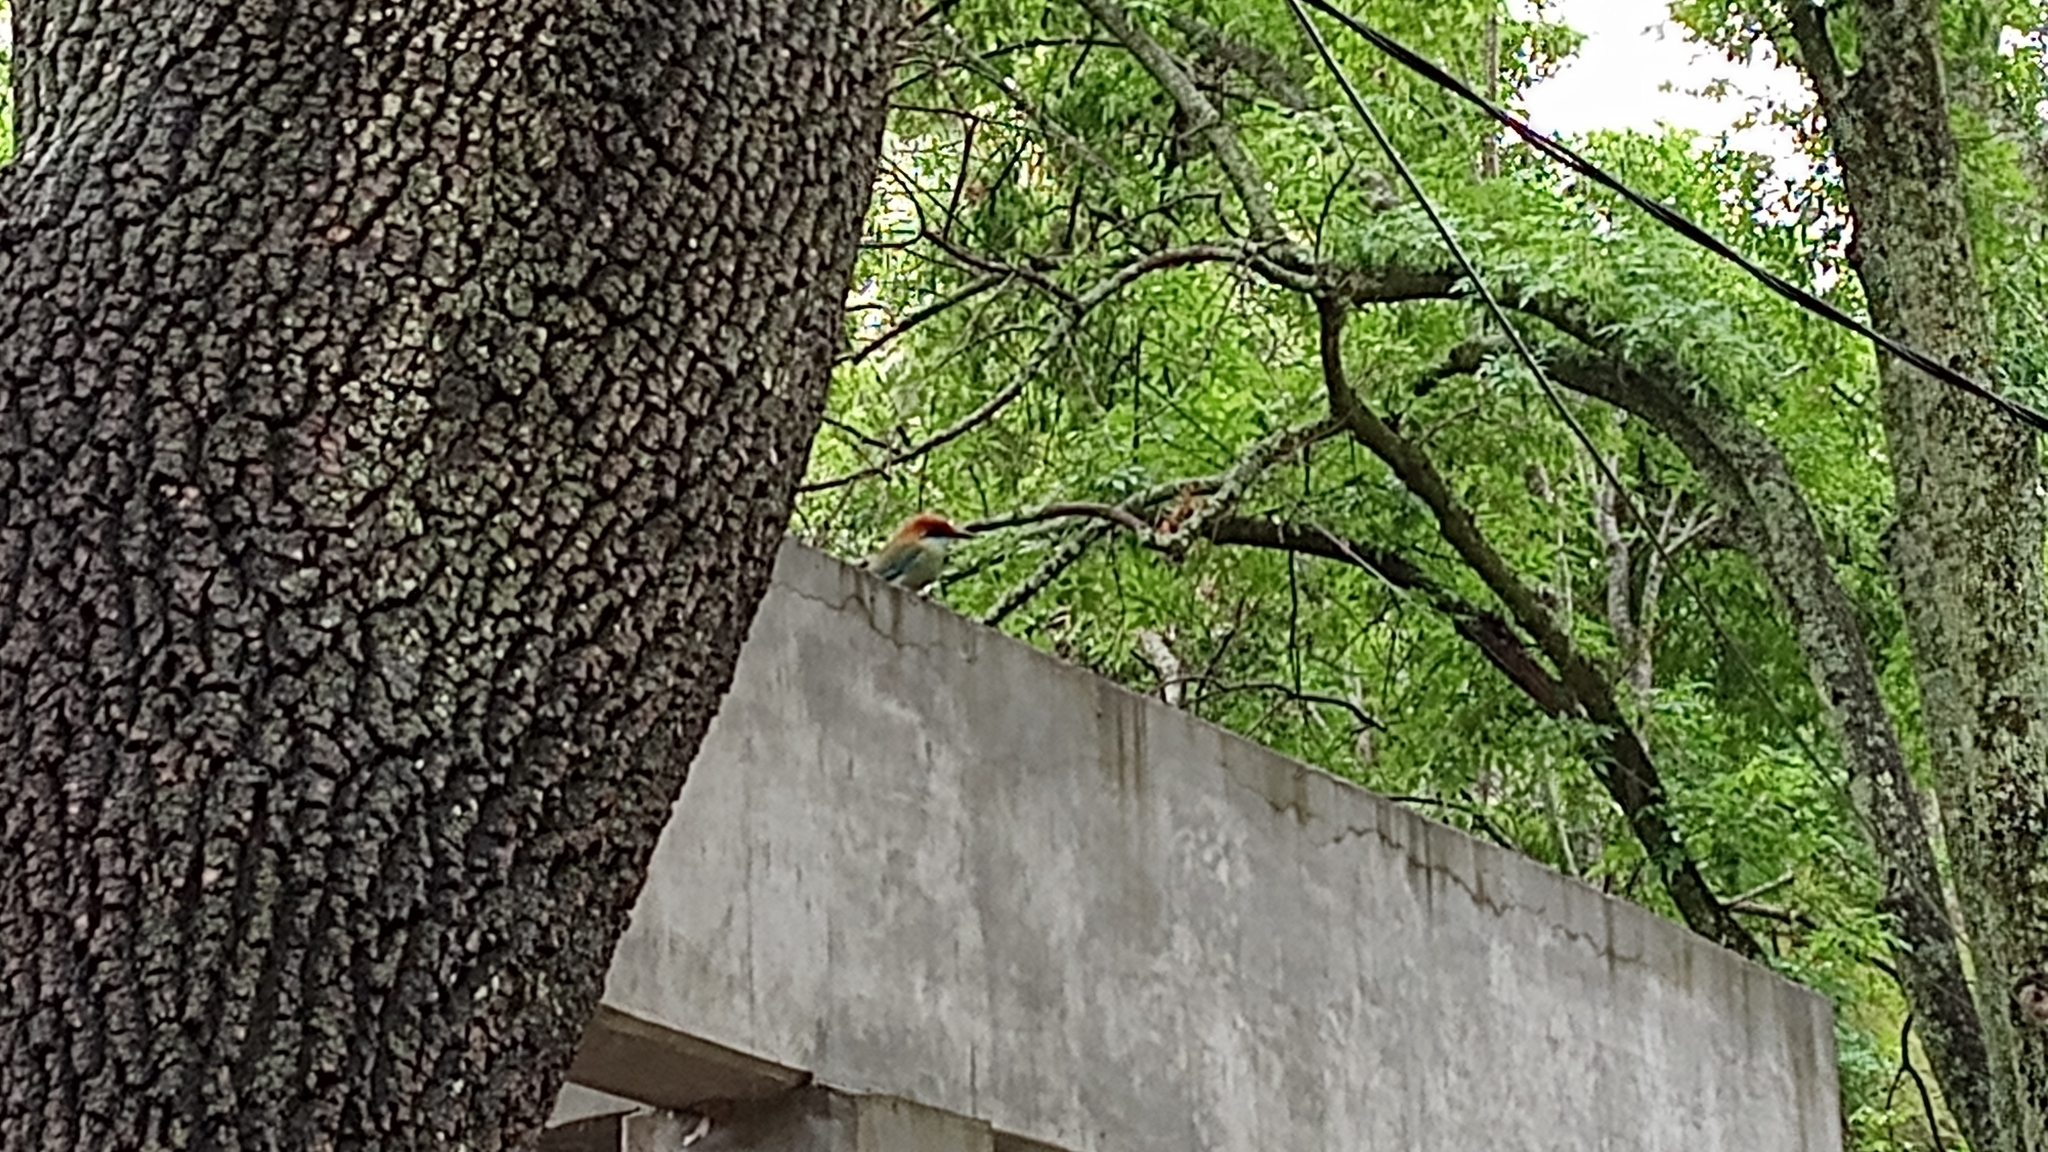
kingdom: Animalia
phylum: Chordata
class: Aves
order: Coraciiformes
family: Momotidae
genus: Momotus
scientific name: Momotus mexicanus
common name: Russet-crowned motmot
